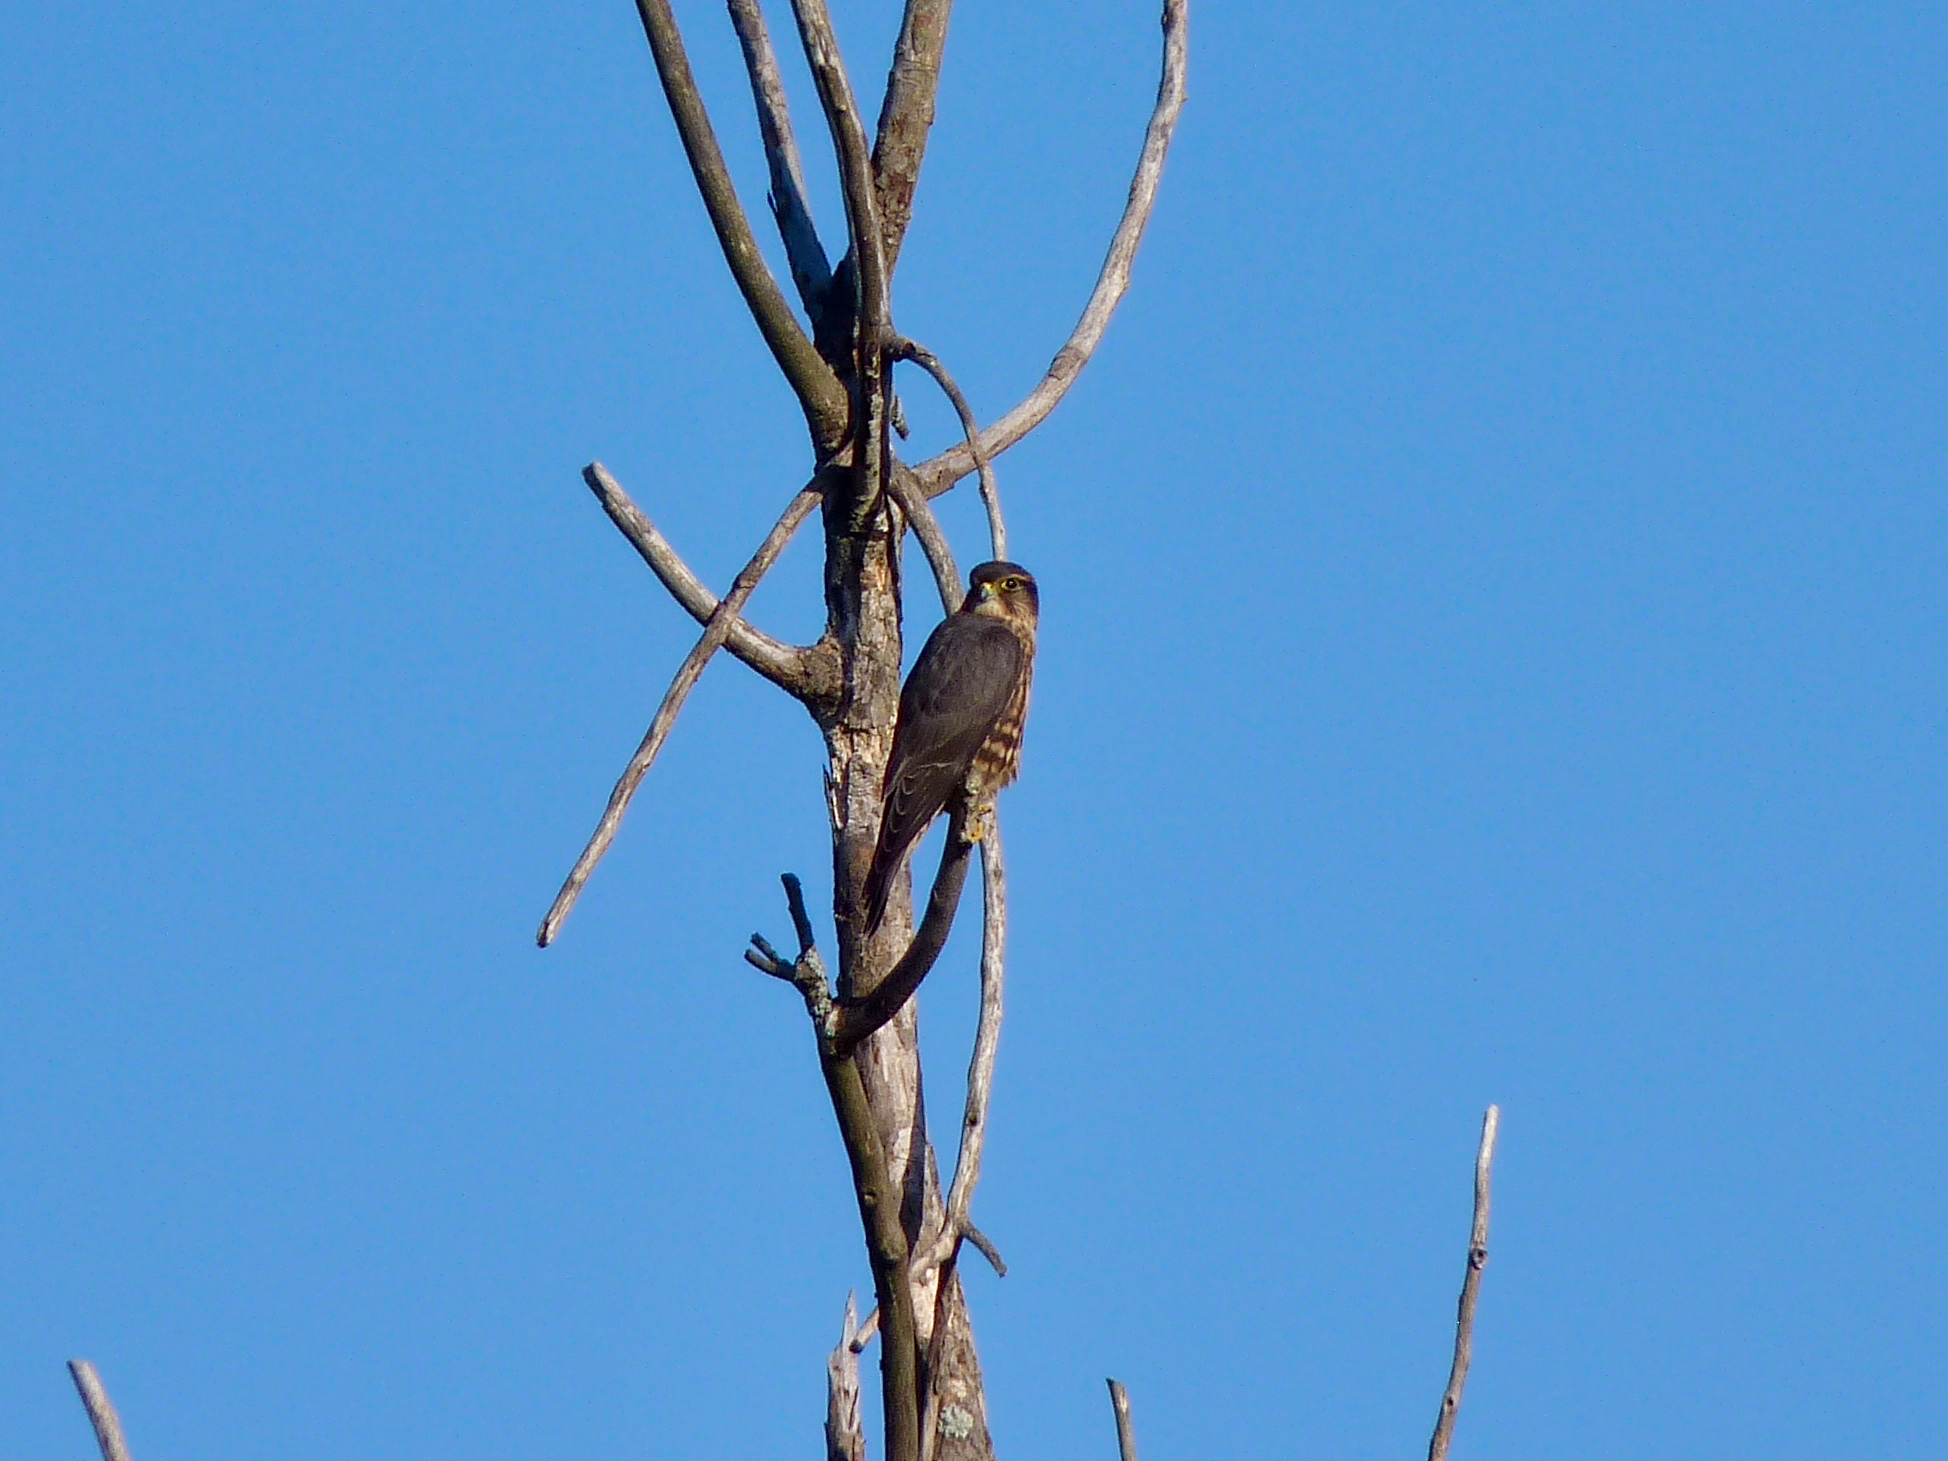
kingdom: Animalia
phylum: Chordata
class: Aves
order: Falconiformes
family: Falconidae
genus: Falco
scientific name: Falco columbarius
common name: Merlin
